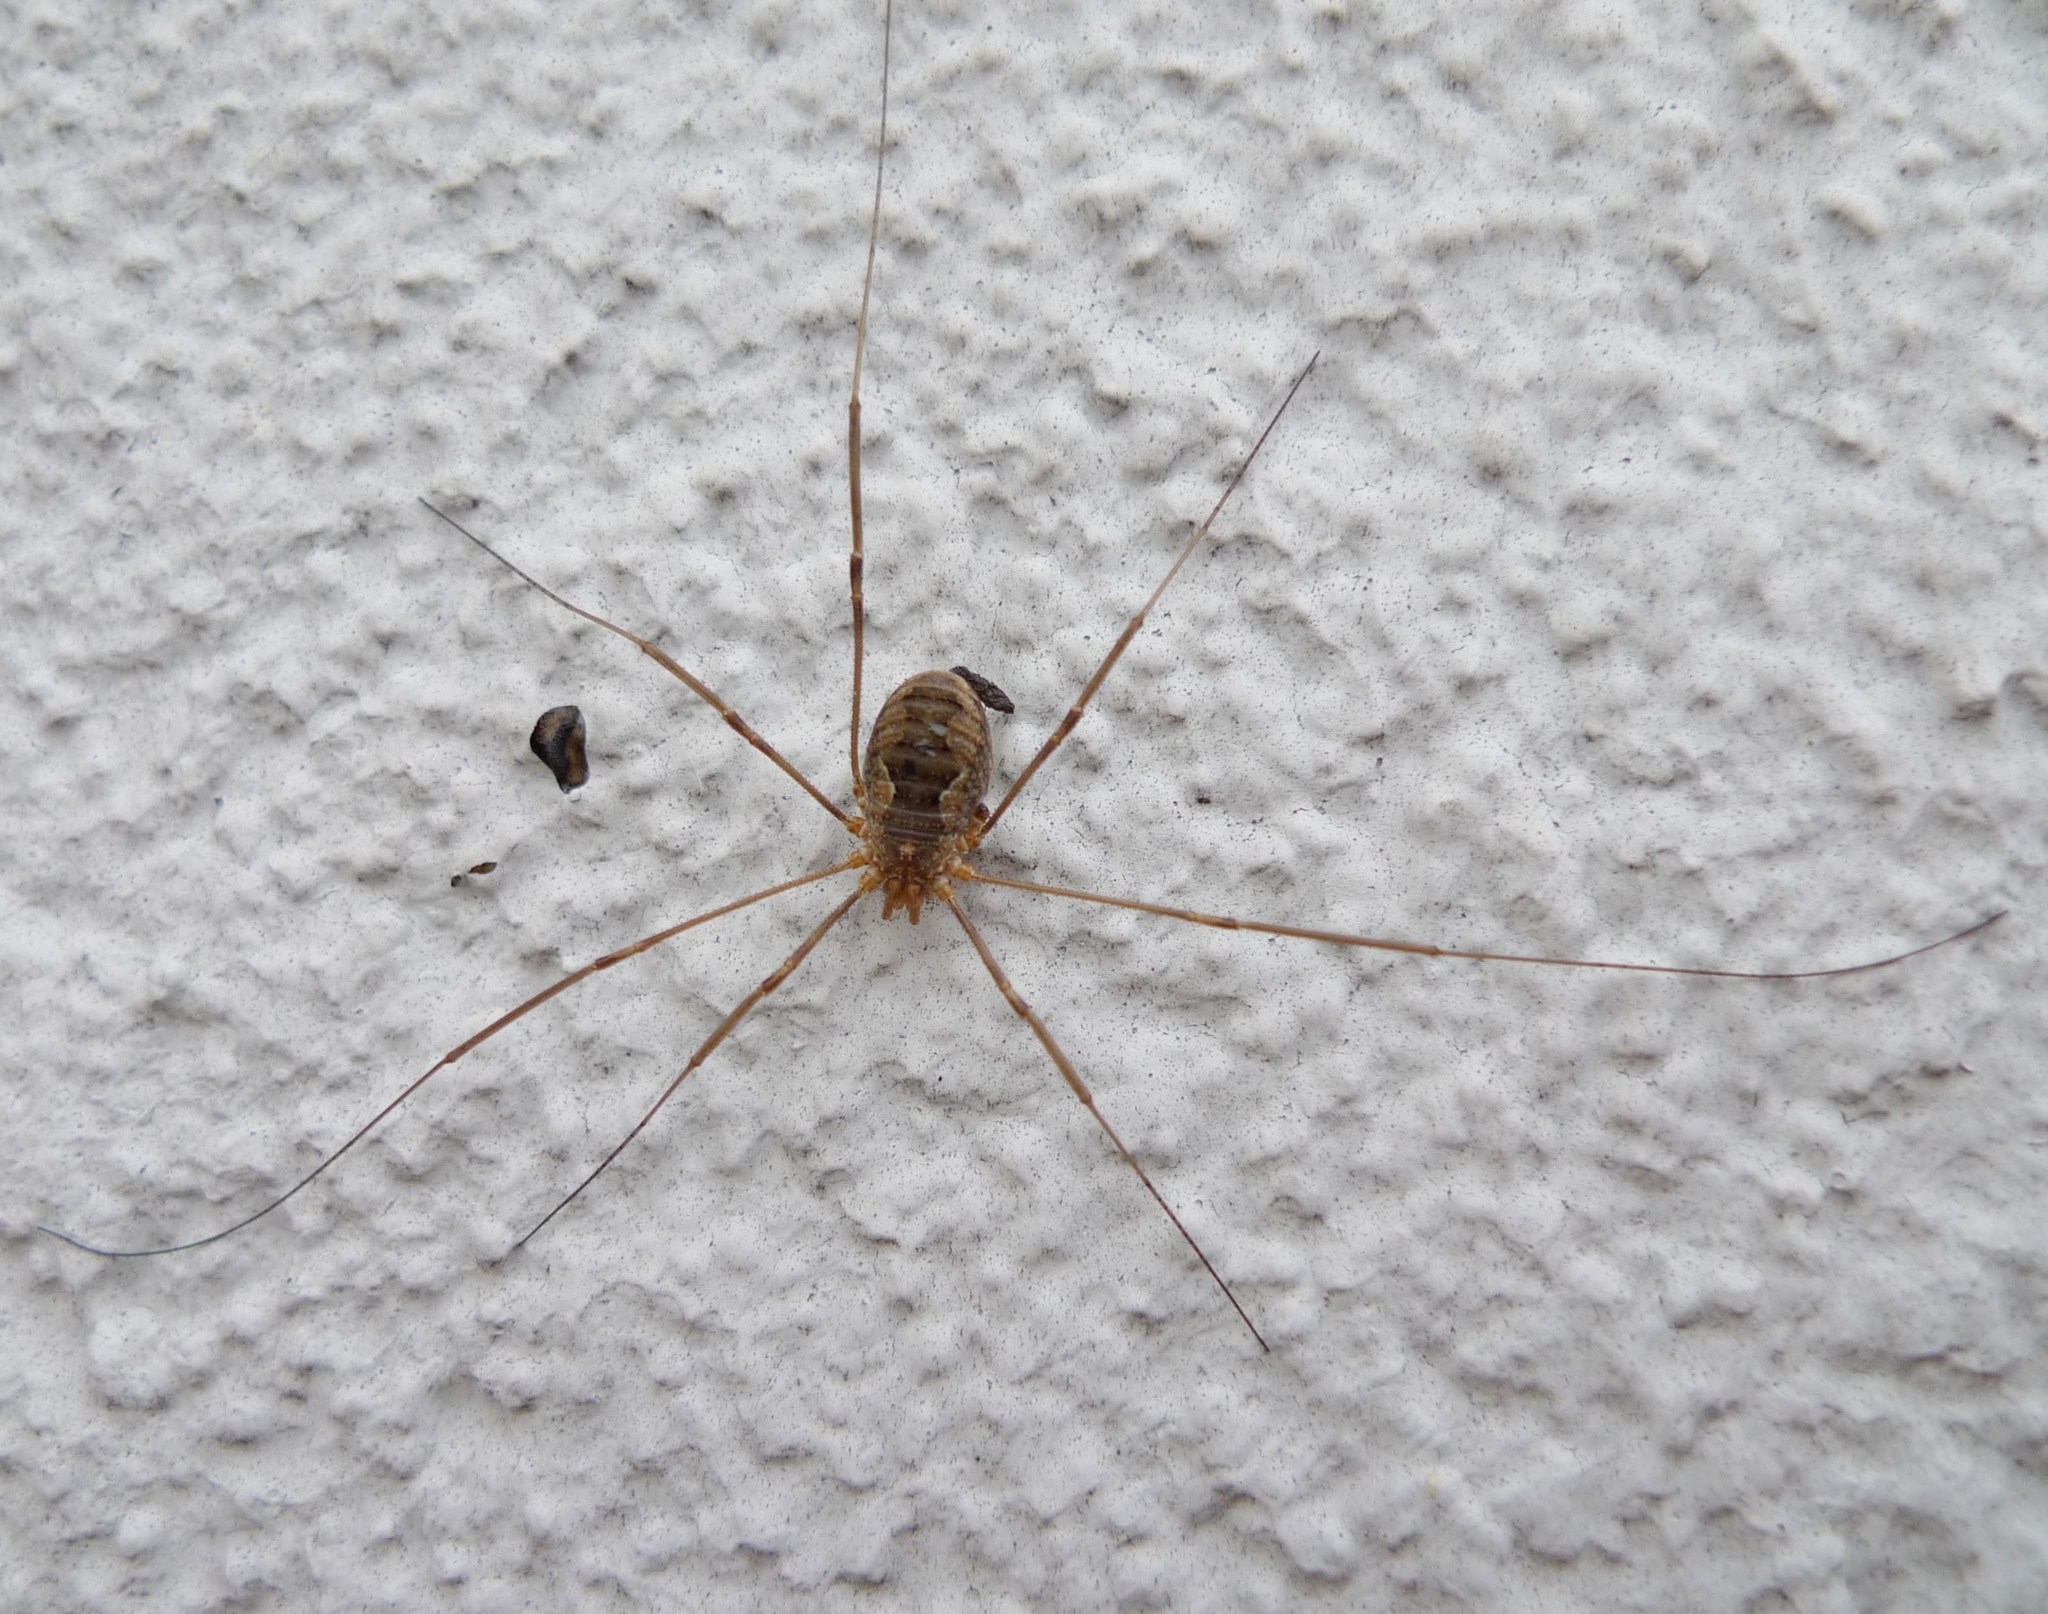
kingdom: Animalia
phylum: Arthropoda
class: Arachnida
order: Opiliones
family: Phalangiidae
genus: Phalangium
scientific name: Phalangium opilio
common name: Daddy longleg
